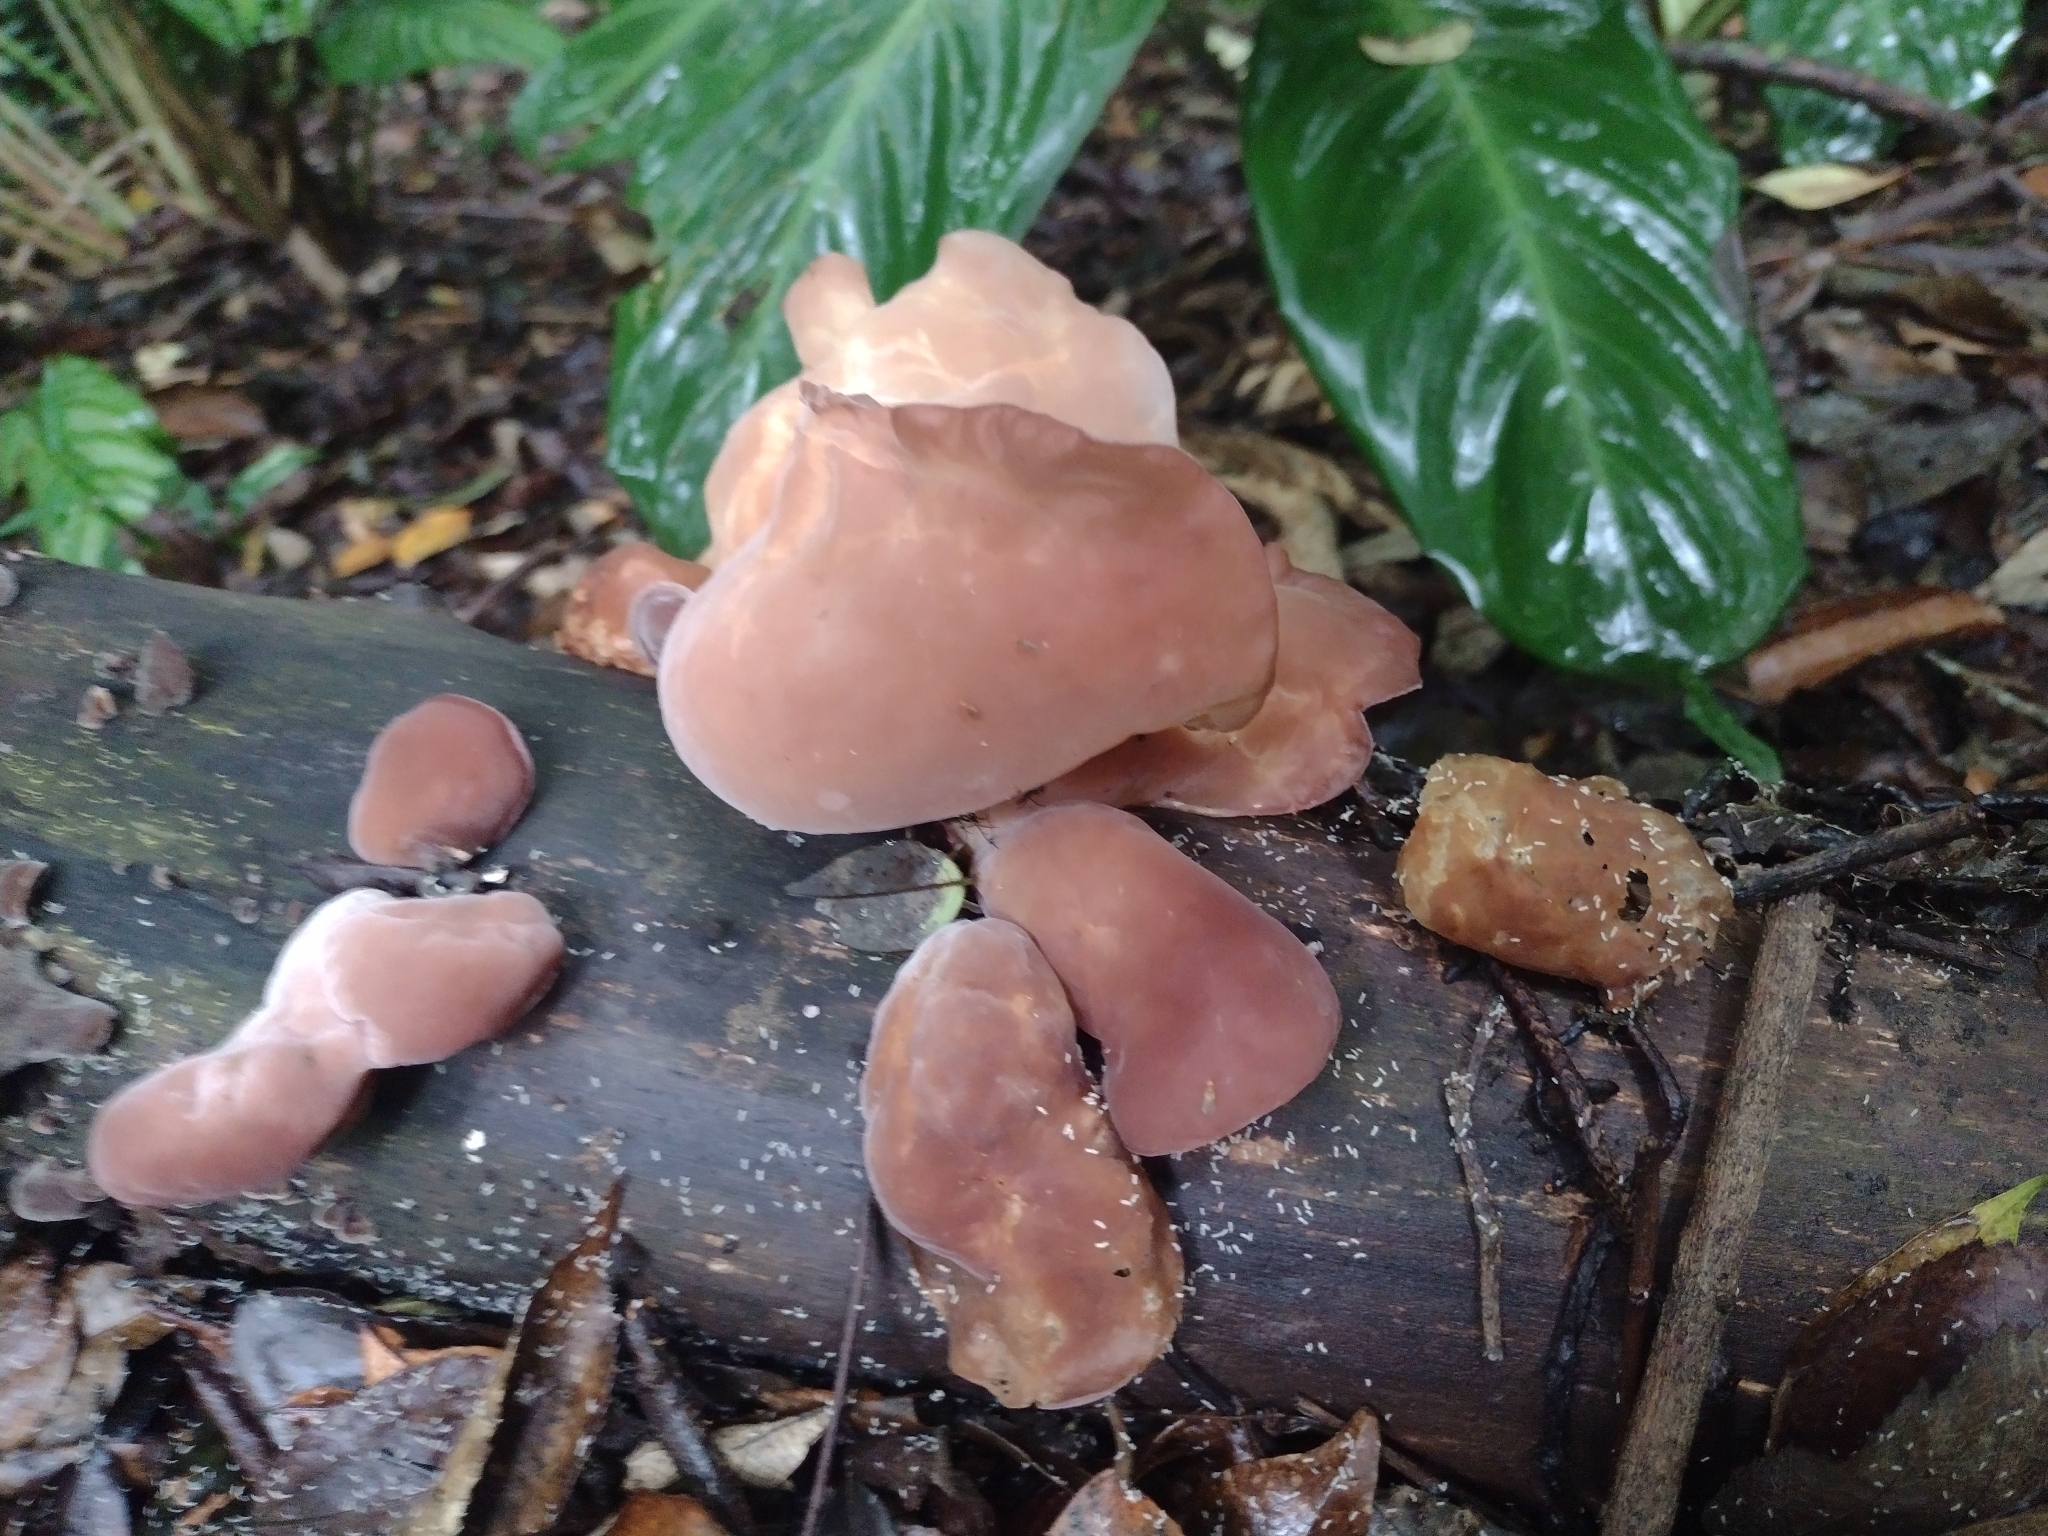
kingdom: Fungi
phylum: Basidiomycota
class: Agaricomycetes
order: Auriculariales
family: Auriculariaceae
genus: Auricularia
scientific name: Auricularia fuscosuccinea
